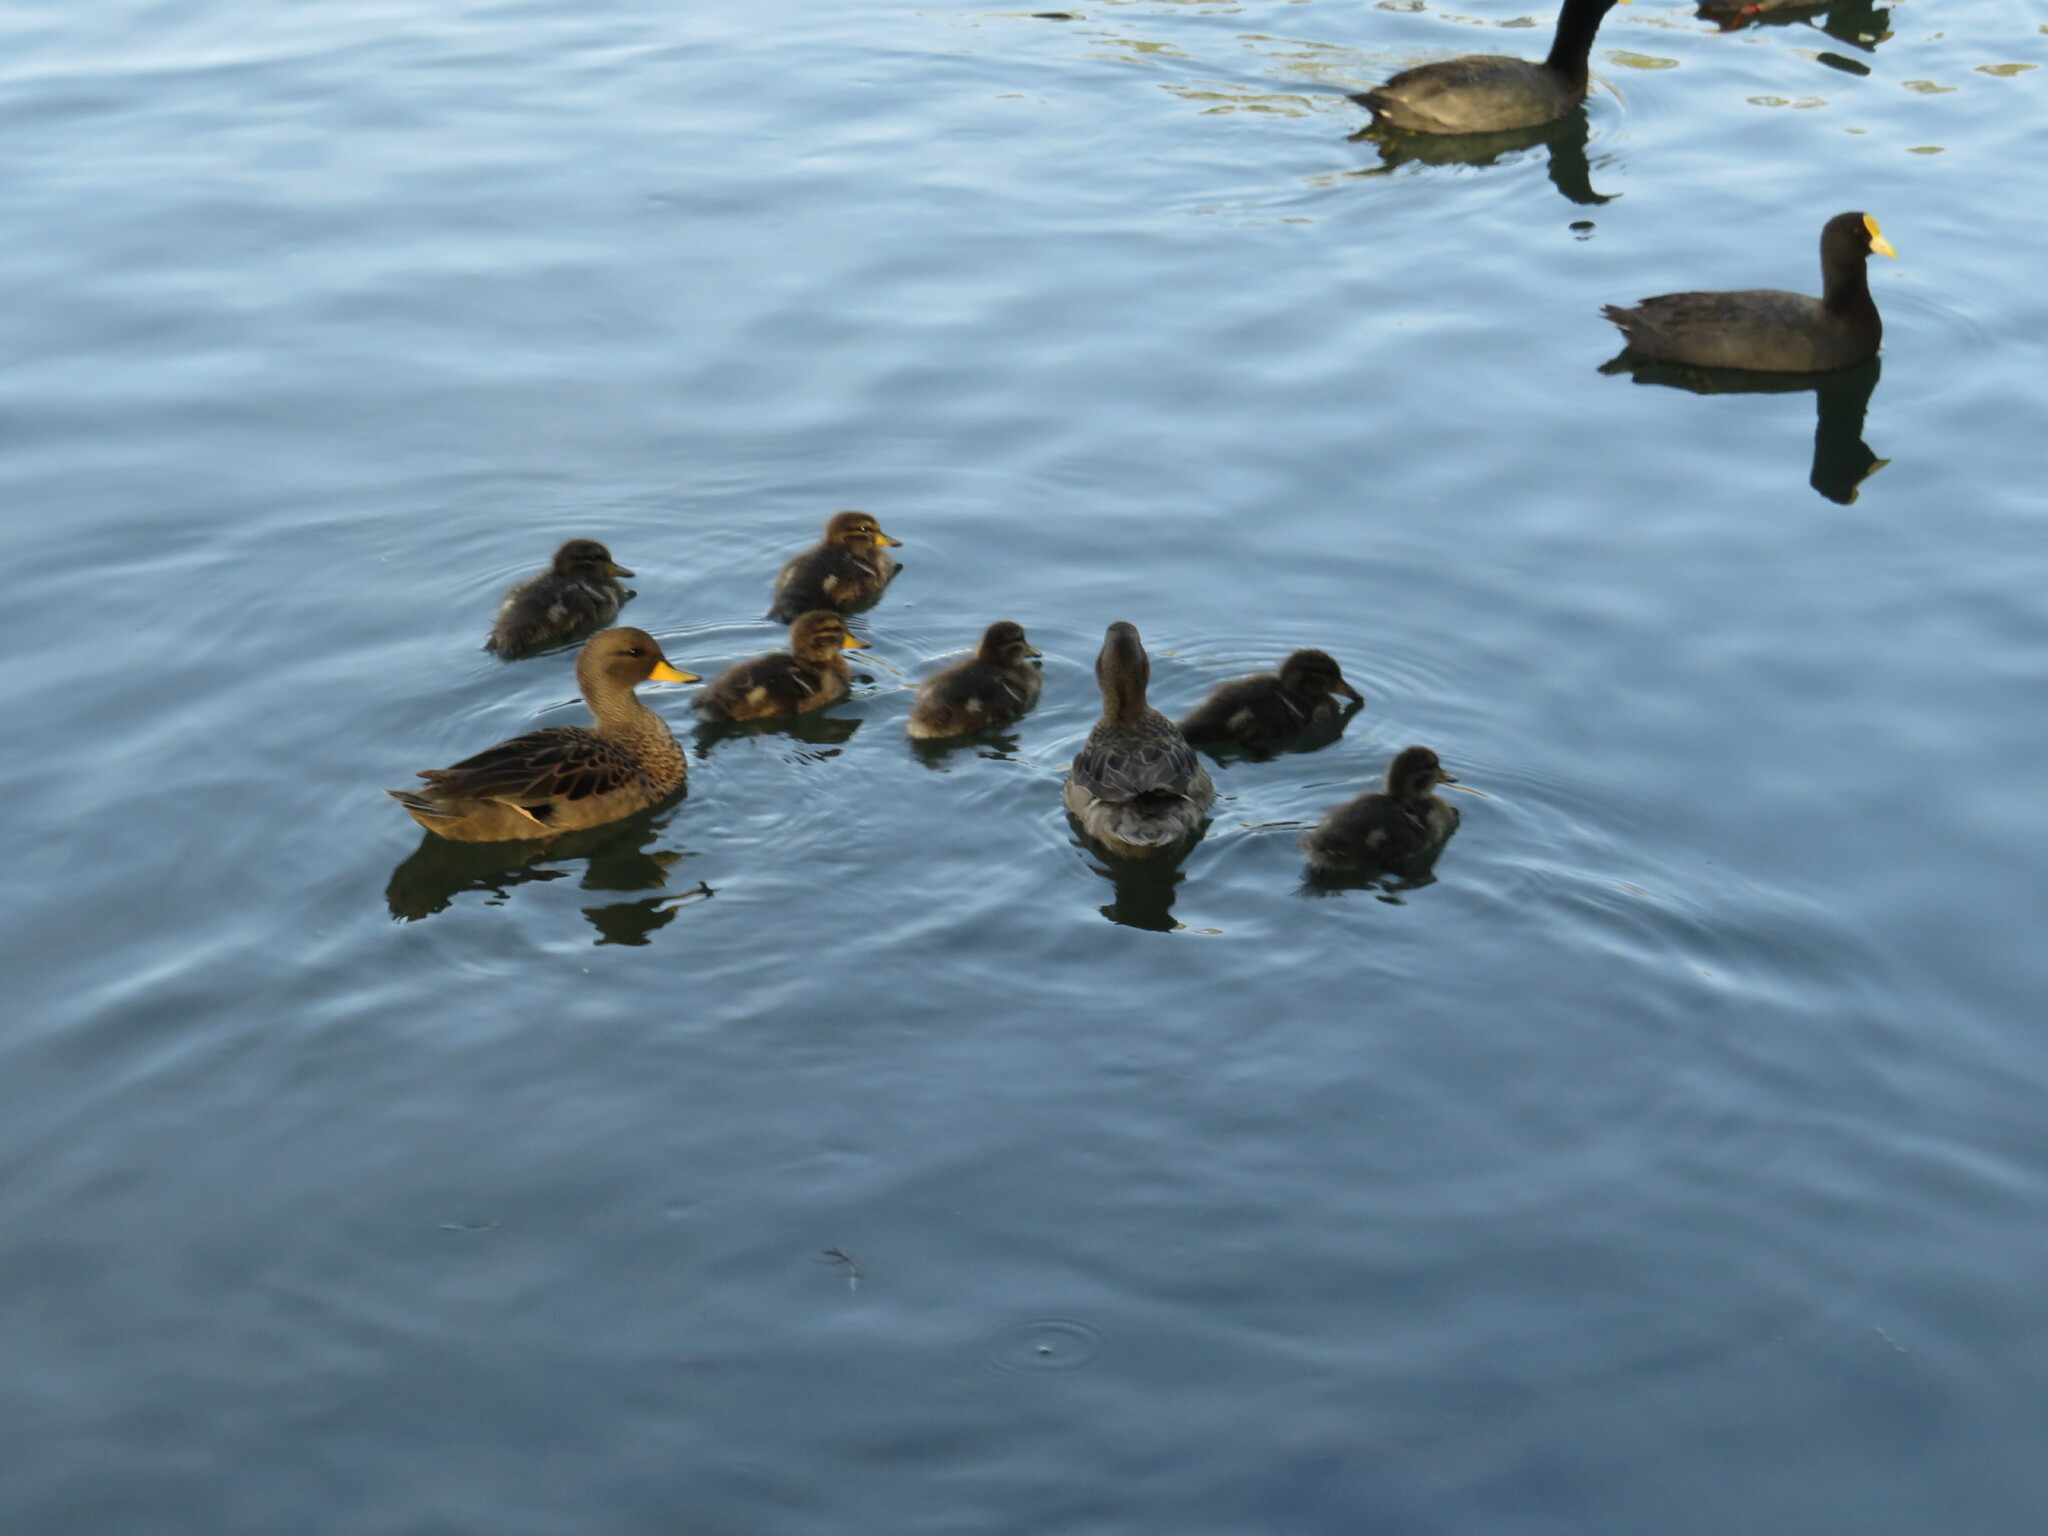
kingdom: Animalia
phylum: Chordata
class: Aves
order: Anseriformes
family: Anatidae
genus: Anas
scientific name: Anas flavirostris
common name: Yellow-billed teal
